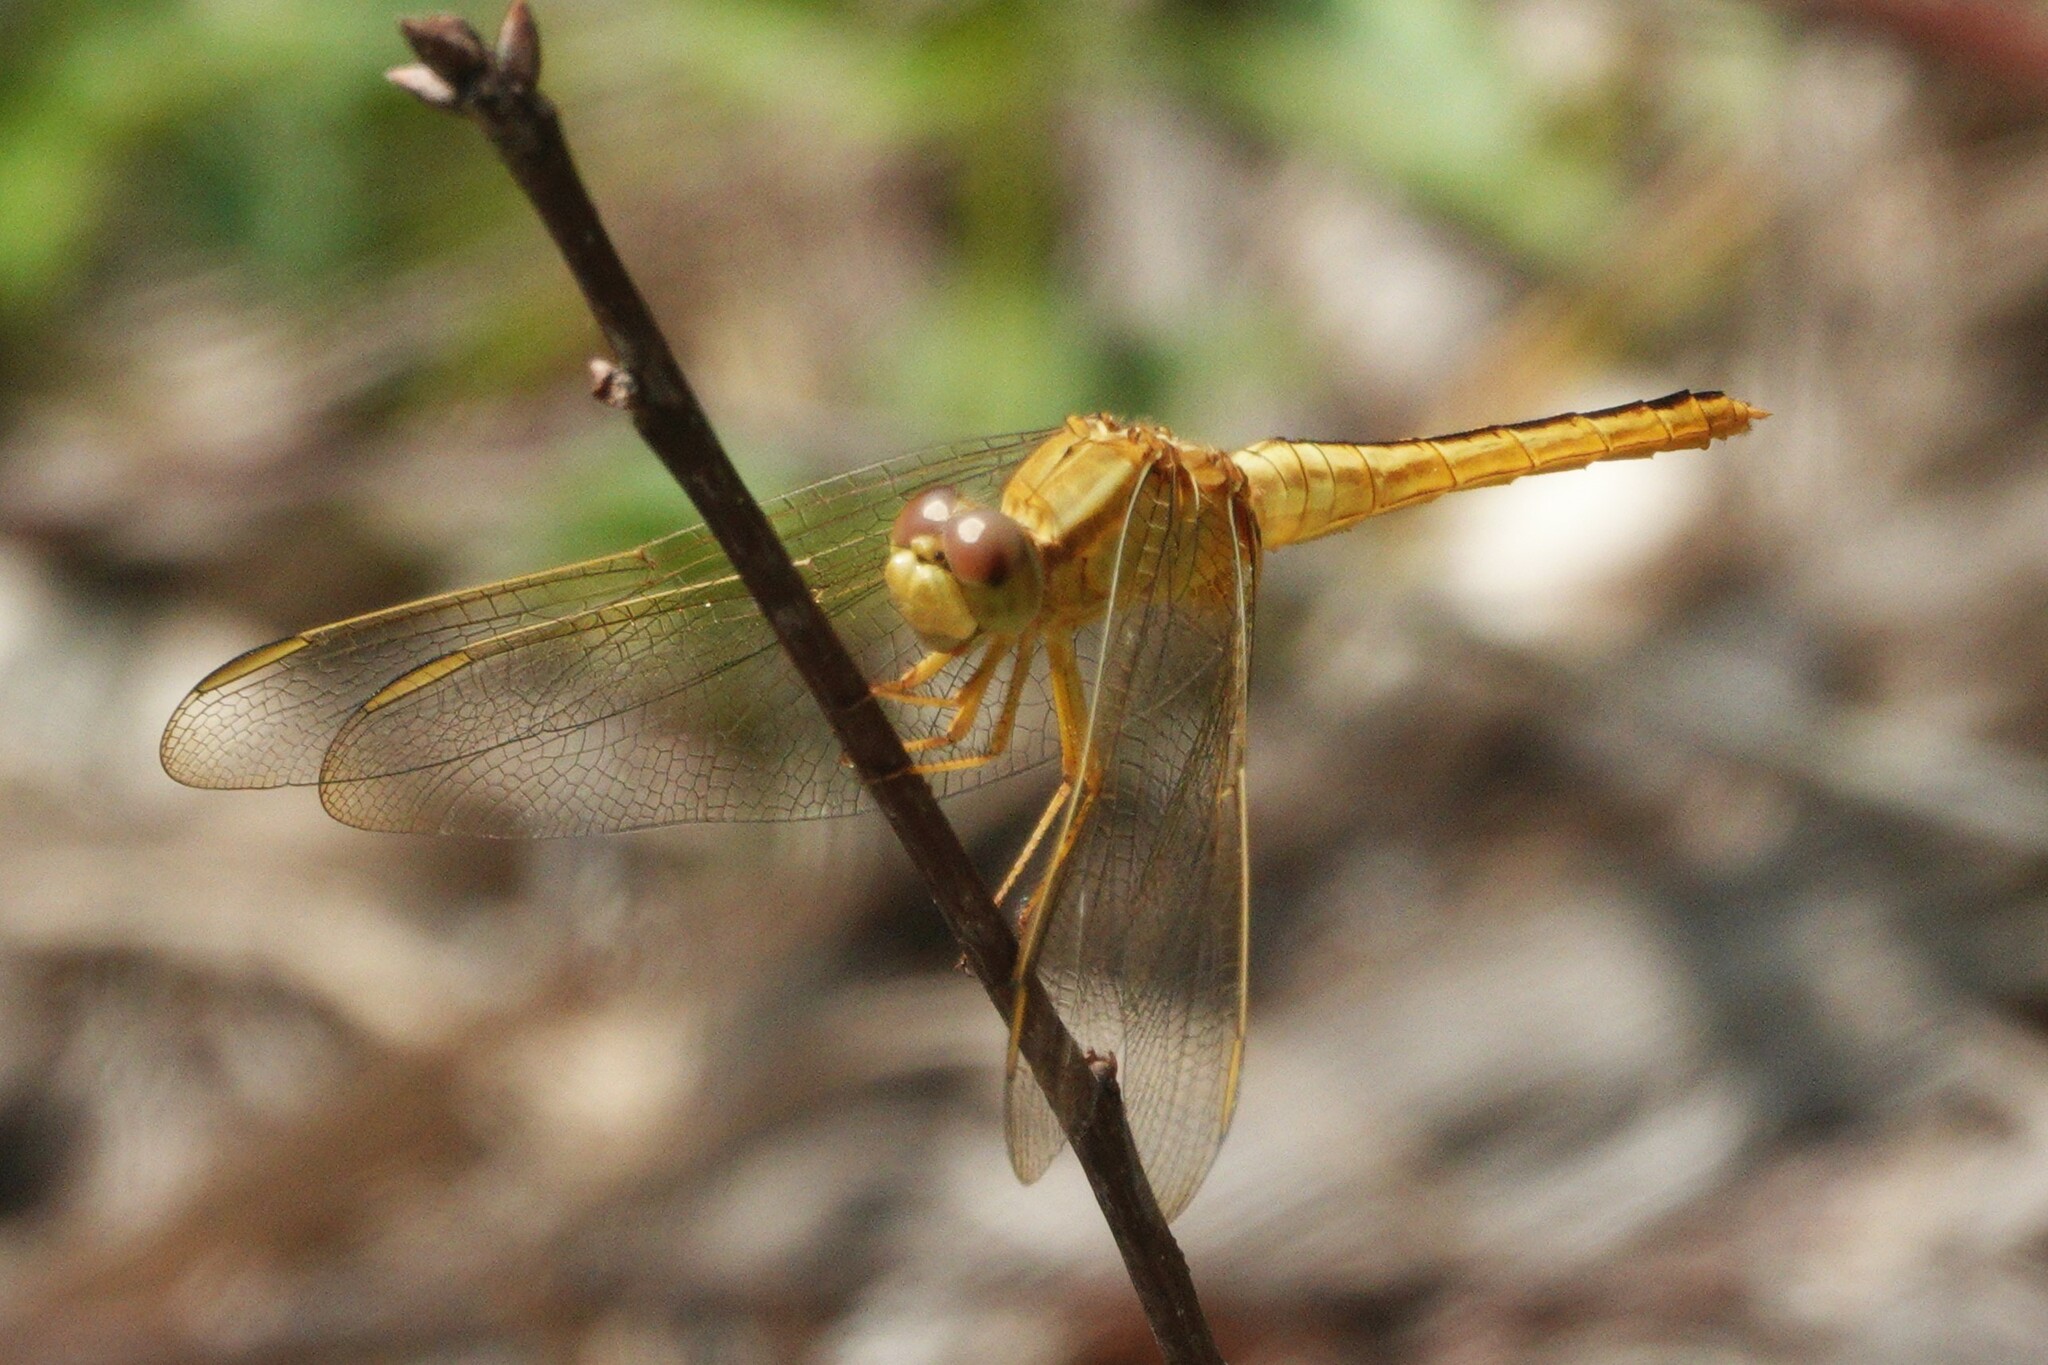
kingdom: Animalia
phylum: Arthropoda
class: Insecta
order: Odonata
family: Libellulidae
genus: Crocothemis
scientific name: Crocothemis servilia
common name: Scarlet skimmer
